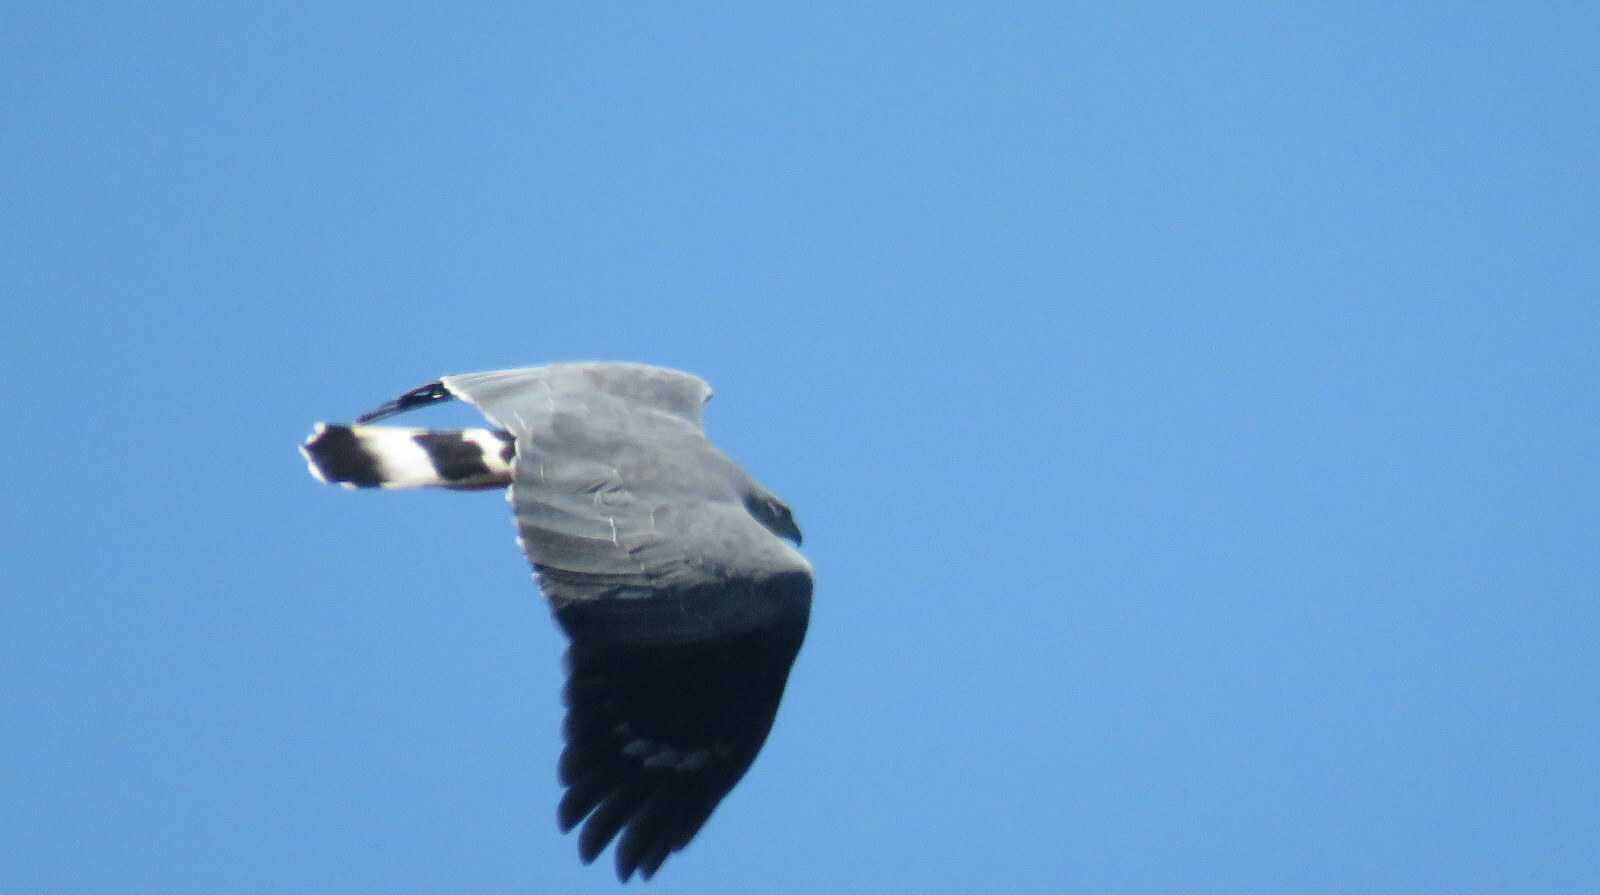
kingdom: Animalia
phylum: Chordata
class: Aves
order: Accipitriformes
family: Accipitridae
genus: Geranospiza
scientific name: Geranospiza caerulescens
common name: Crane hawk
